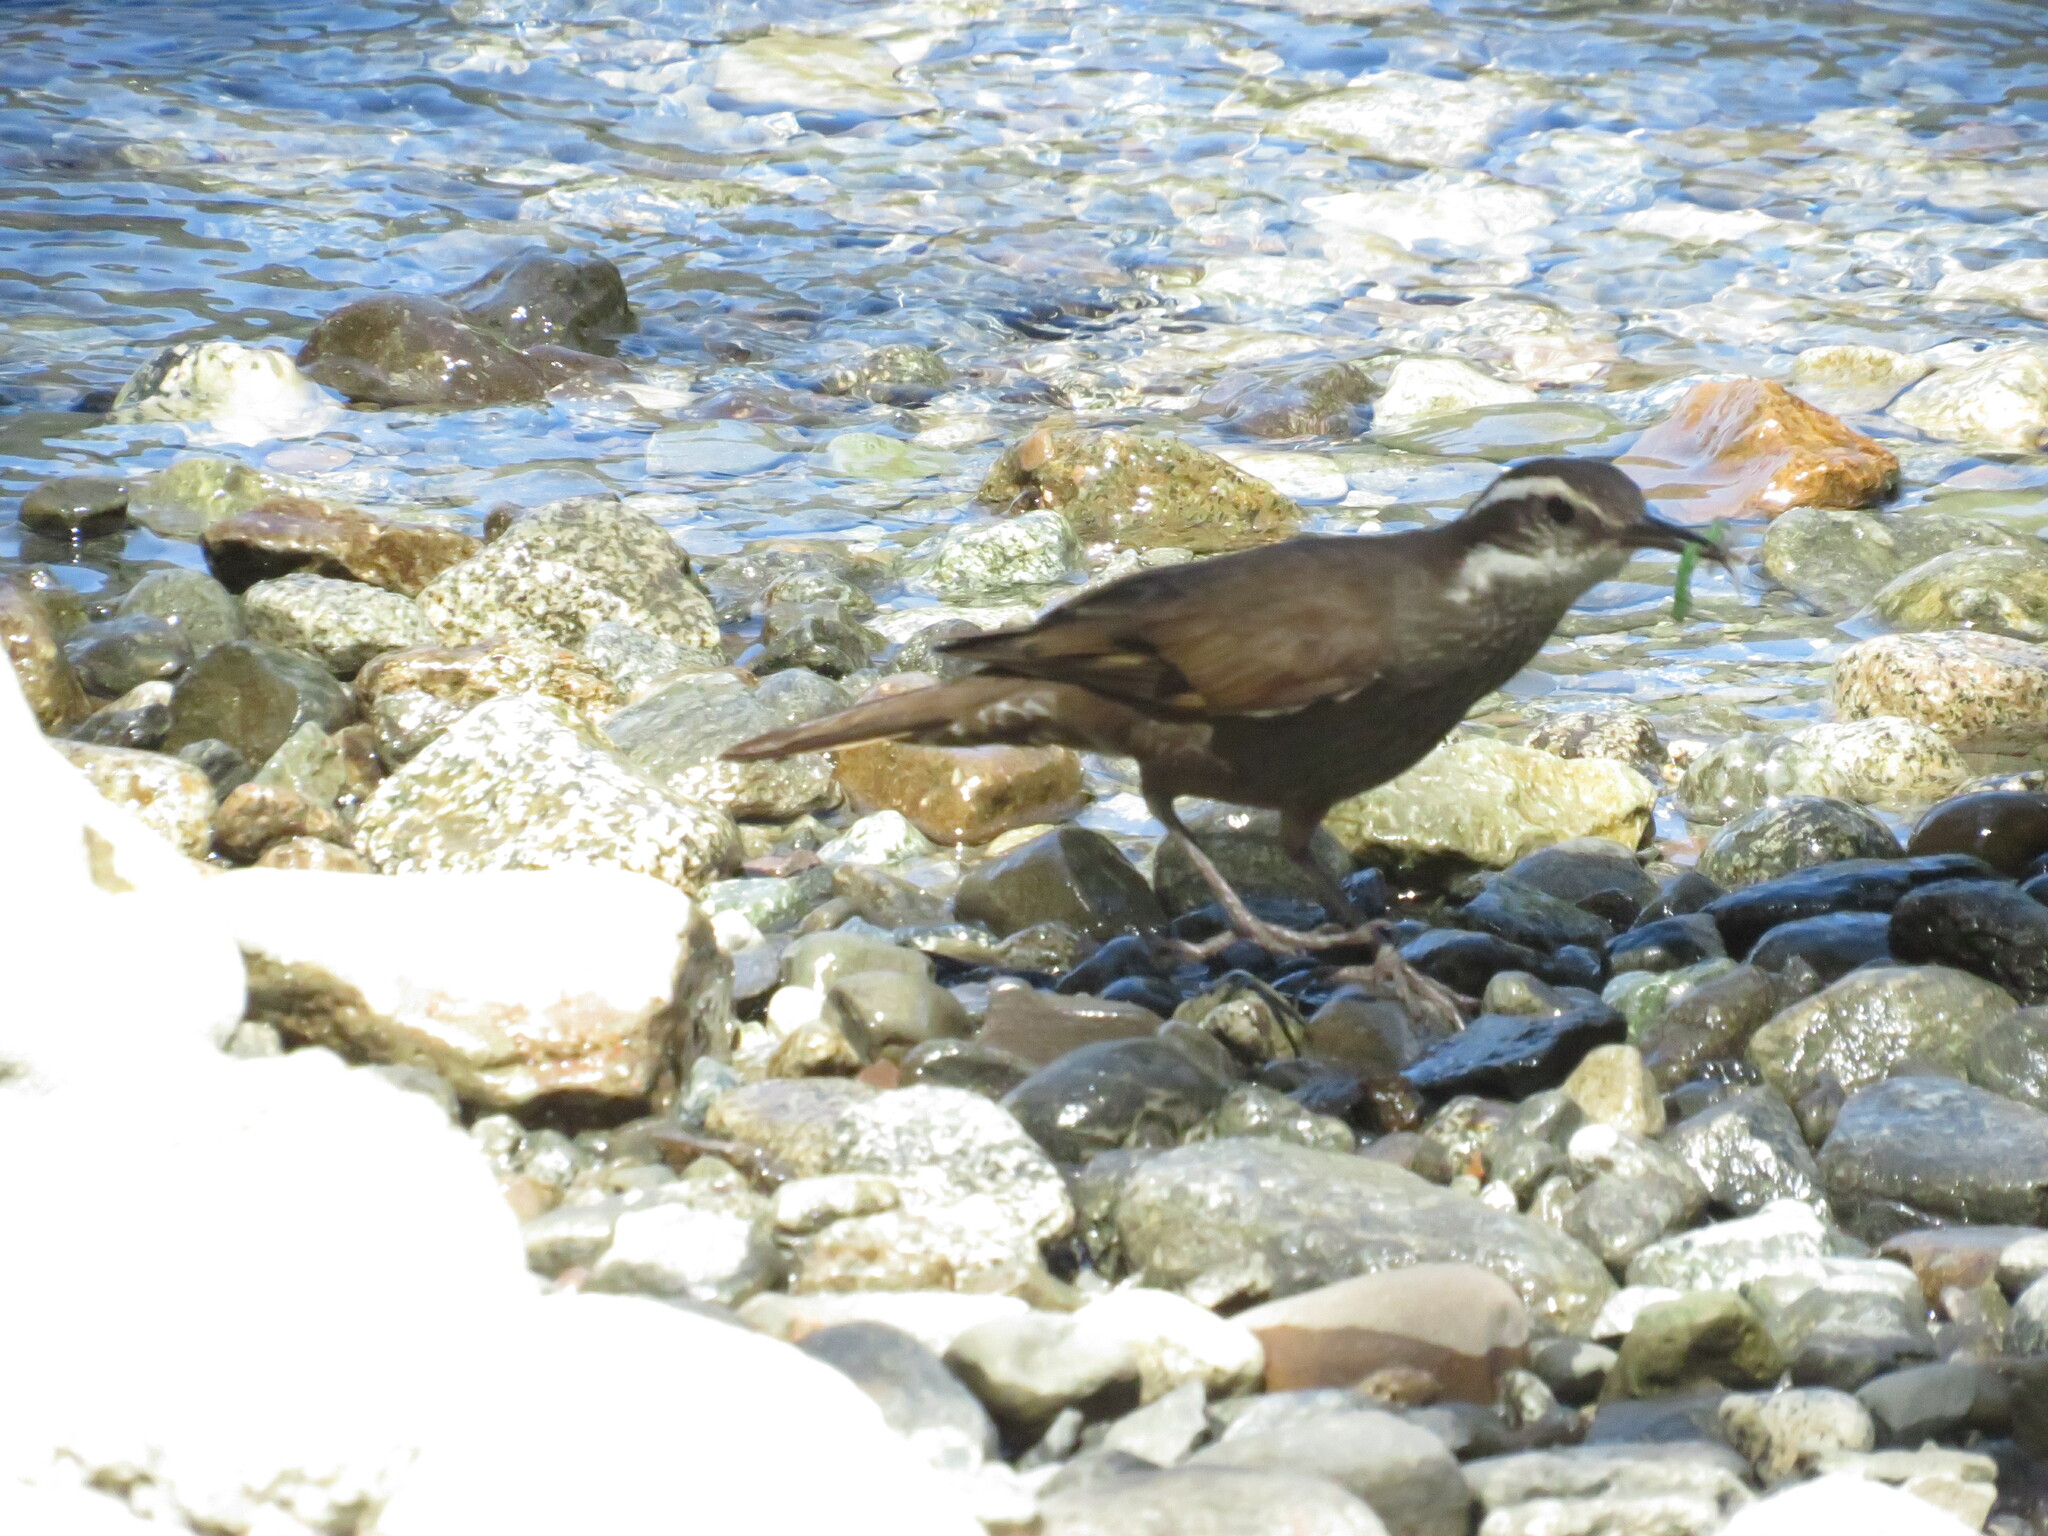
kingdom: Animalia
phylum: Chordata
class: Aves
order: Passeriformes
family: Furnariidae
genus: Cinclodes
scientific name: Cinclodes patagonicus
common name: Dark-bellied cinclodes
